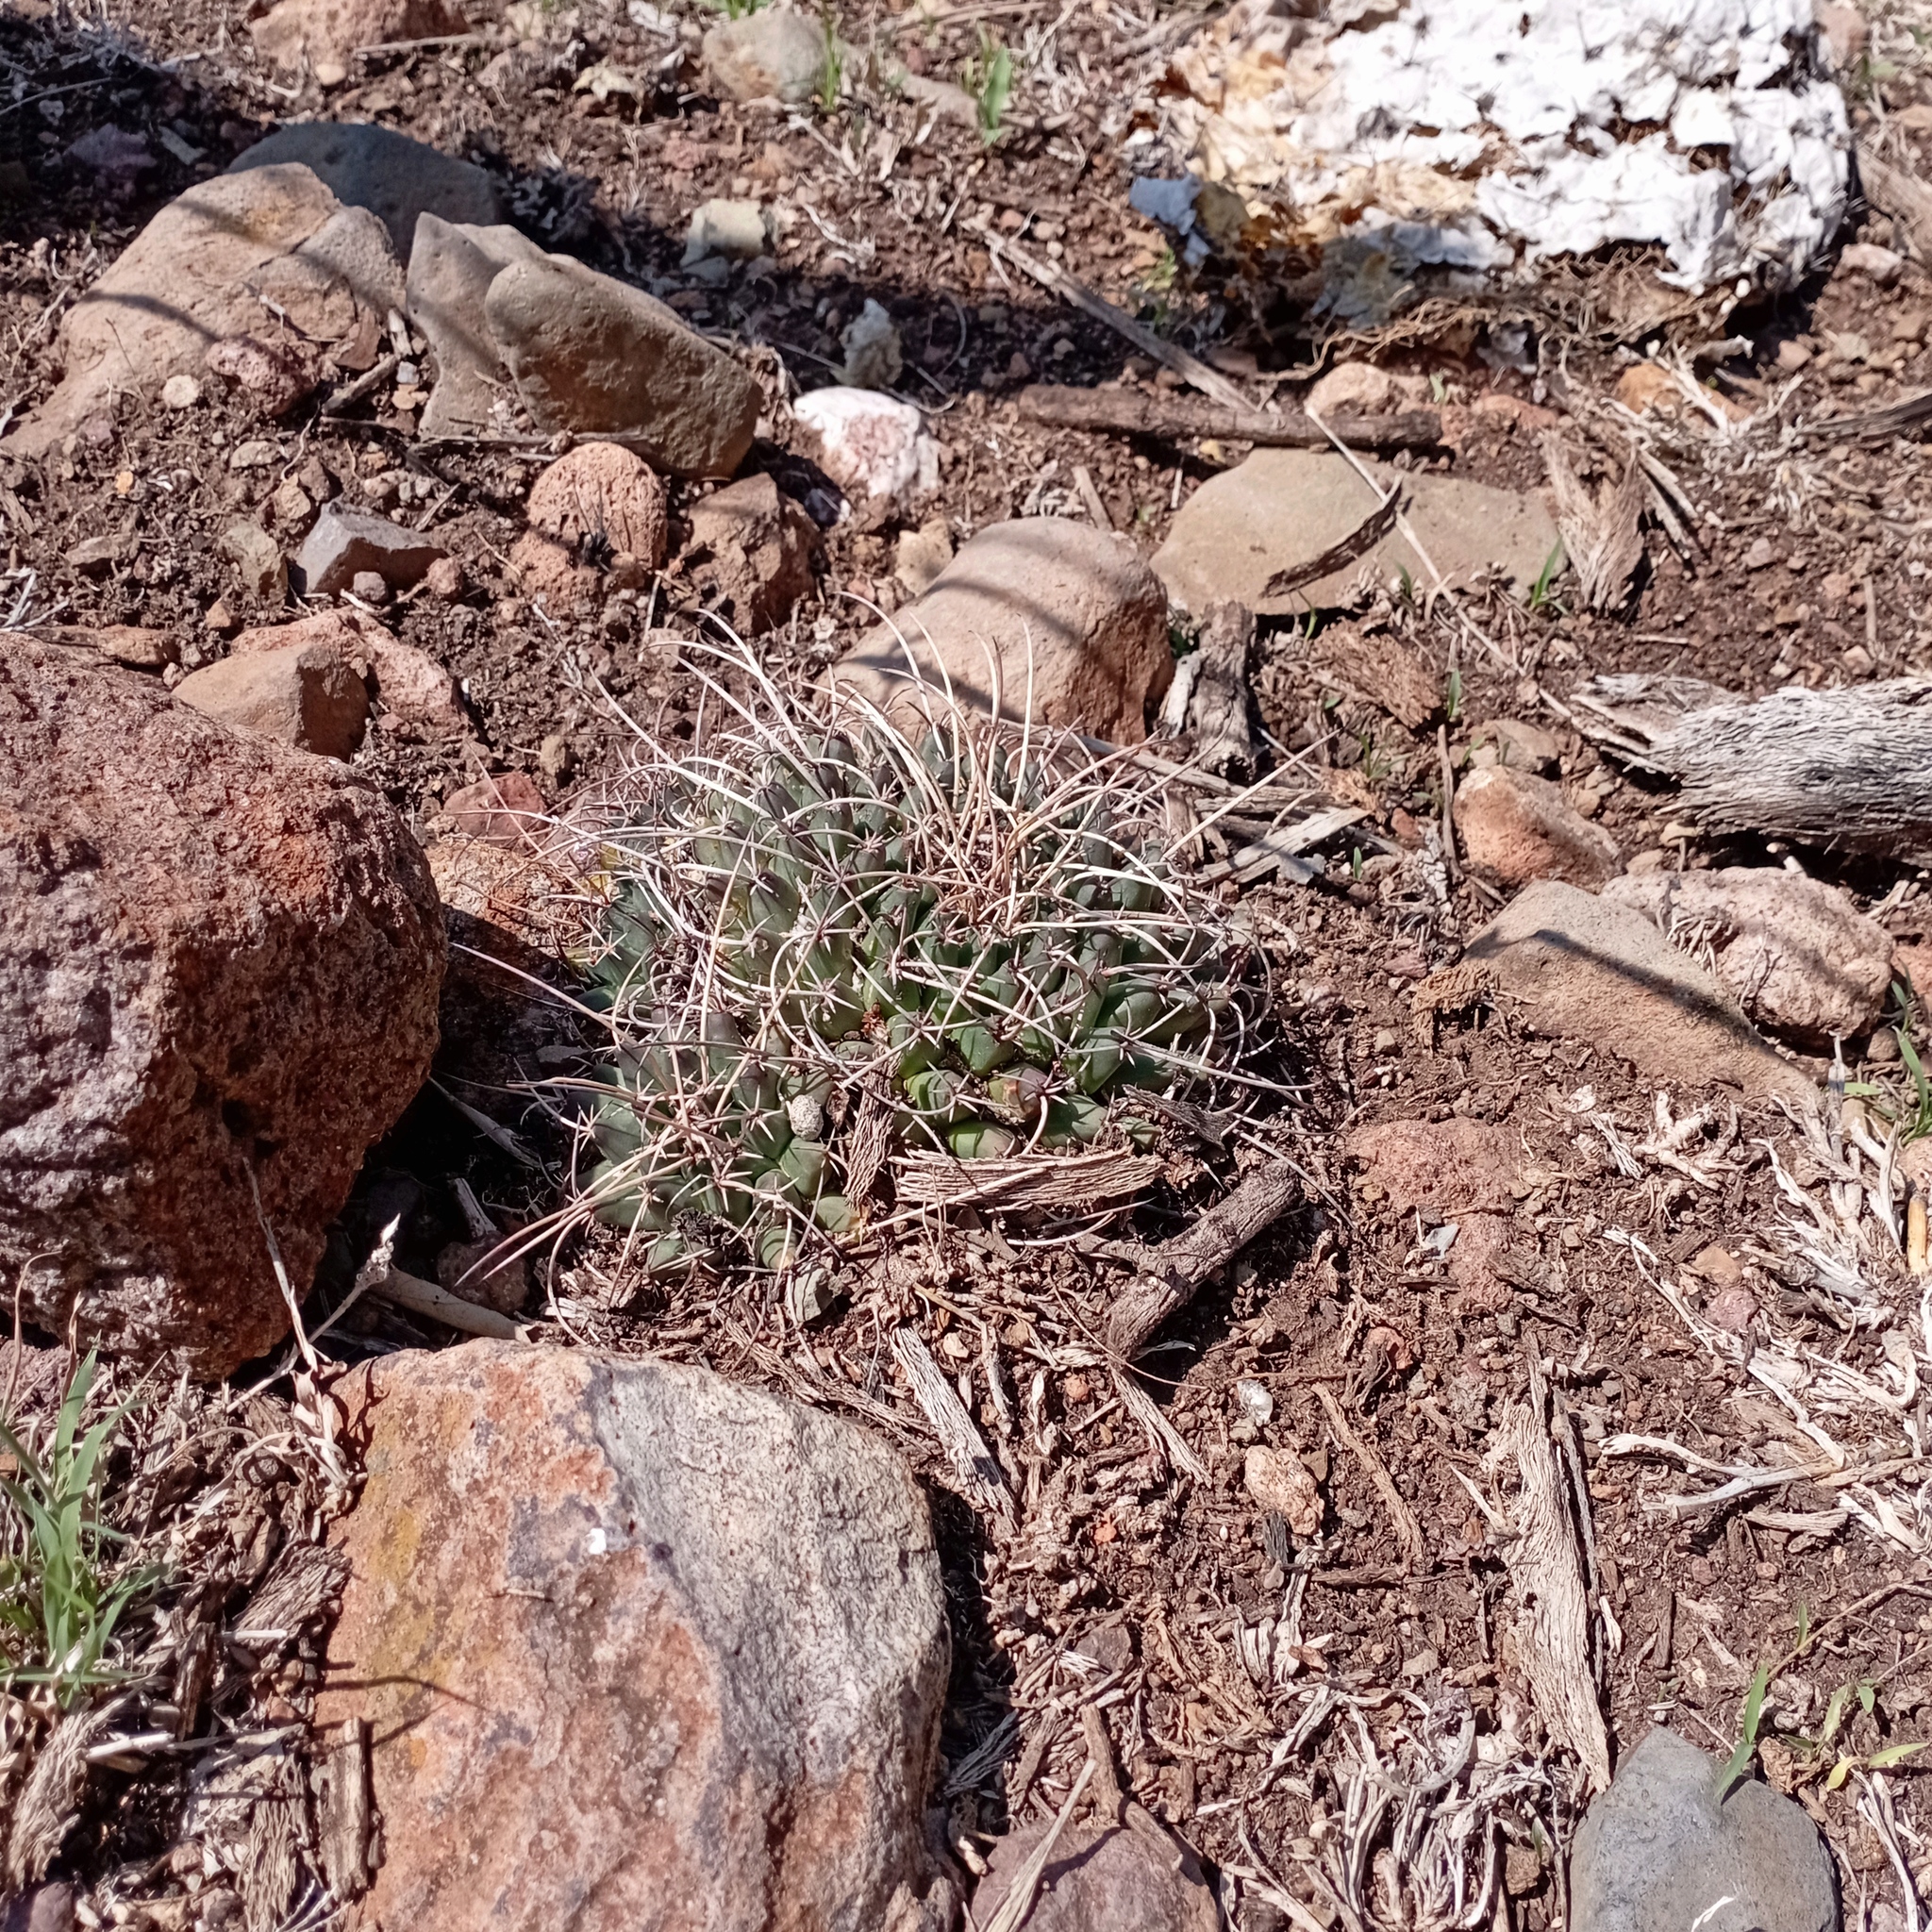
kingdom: Plantae
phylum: Tracheophyta
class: Magnoliopsida
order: Caryophyllales
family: Cactaceae
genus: Mammillaria
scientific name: Mammillaria magnimamma
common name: Mexican pincushion
